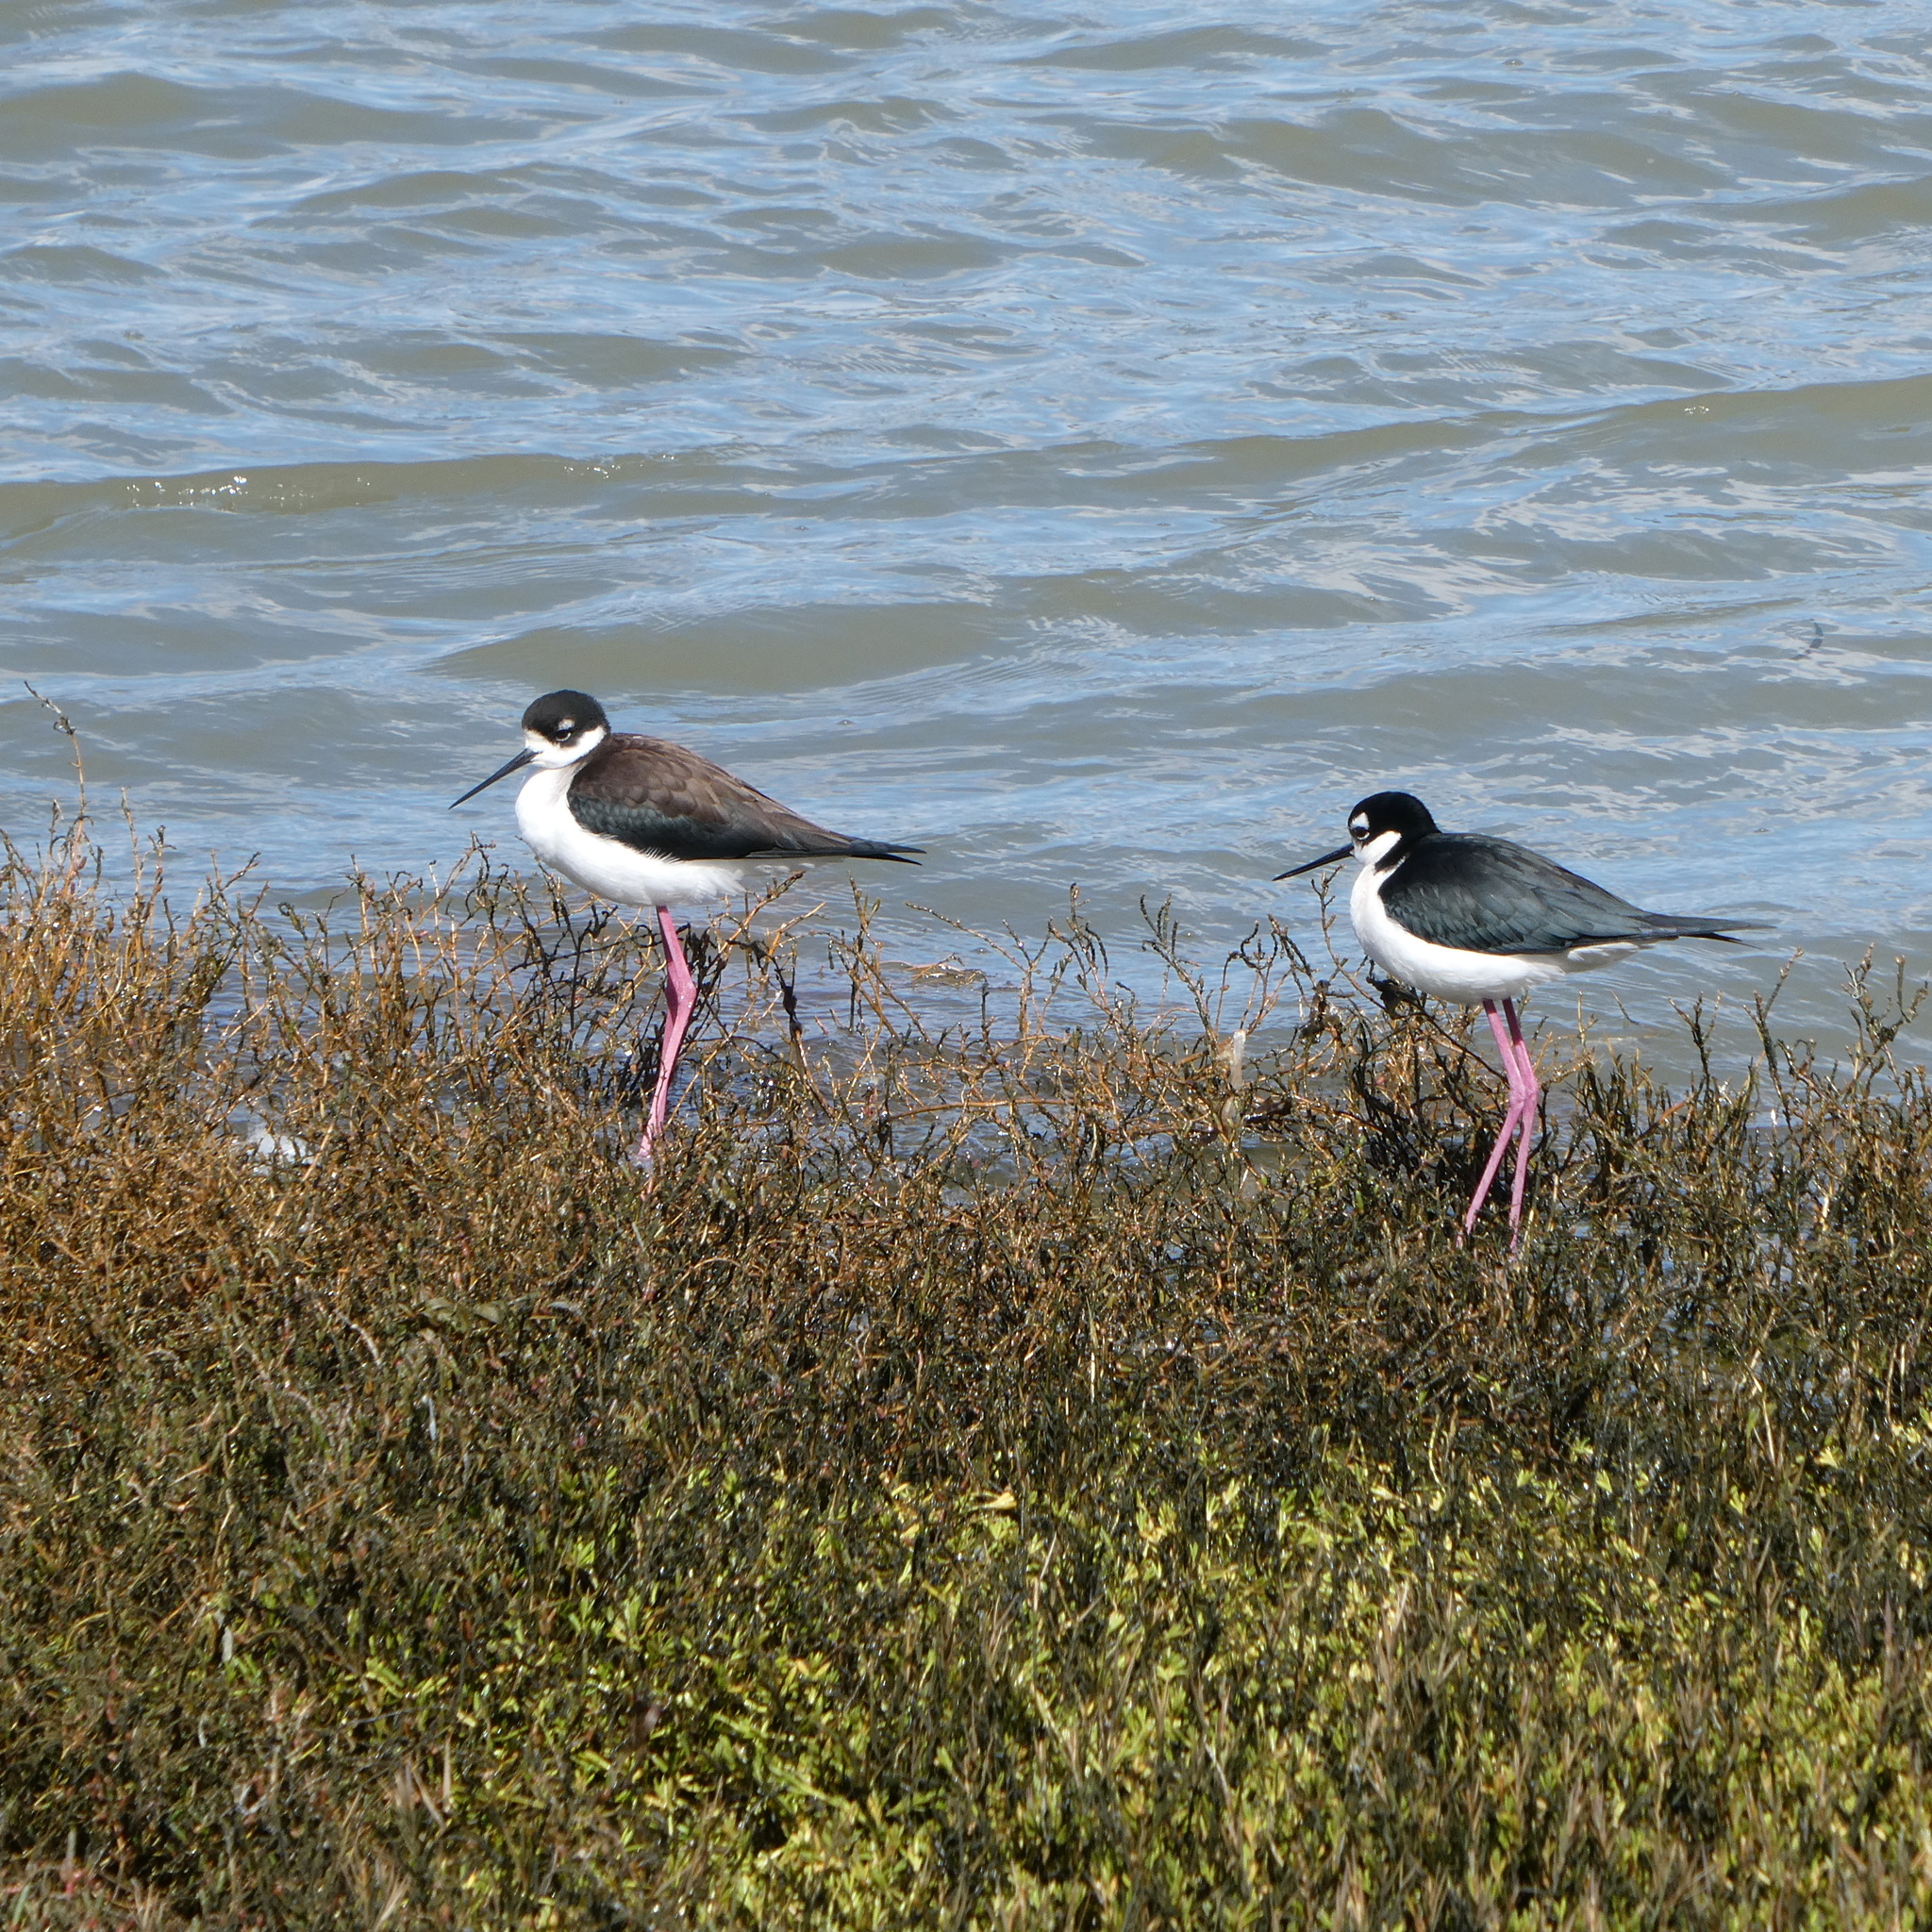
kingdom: Animalia
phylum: Chordata
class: Aves
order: Charadriiformes
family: Recurvirostridae
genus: Himantopus
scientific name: Himantopus mexicanus
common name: Black-necked stilt
